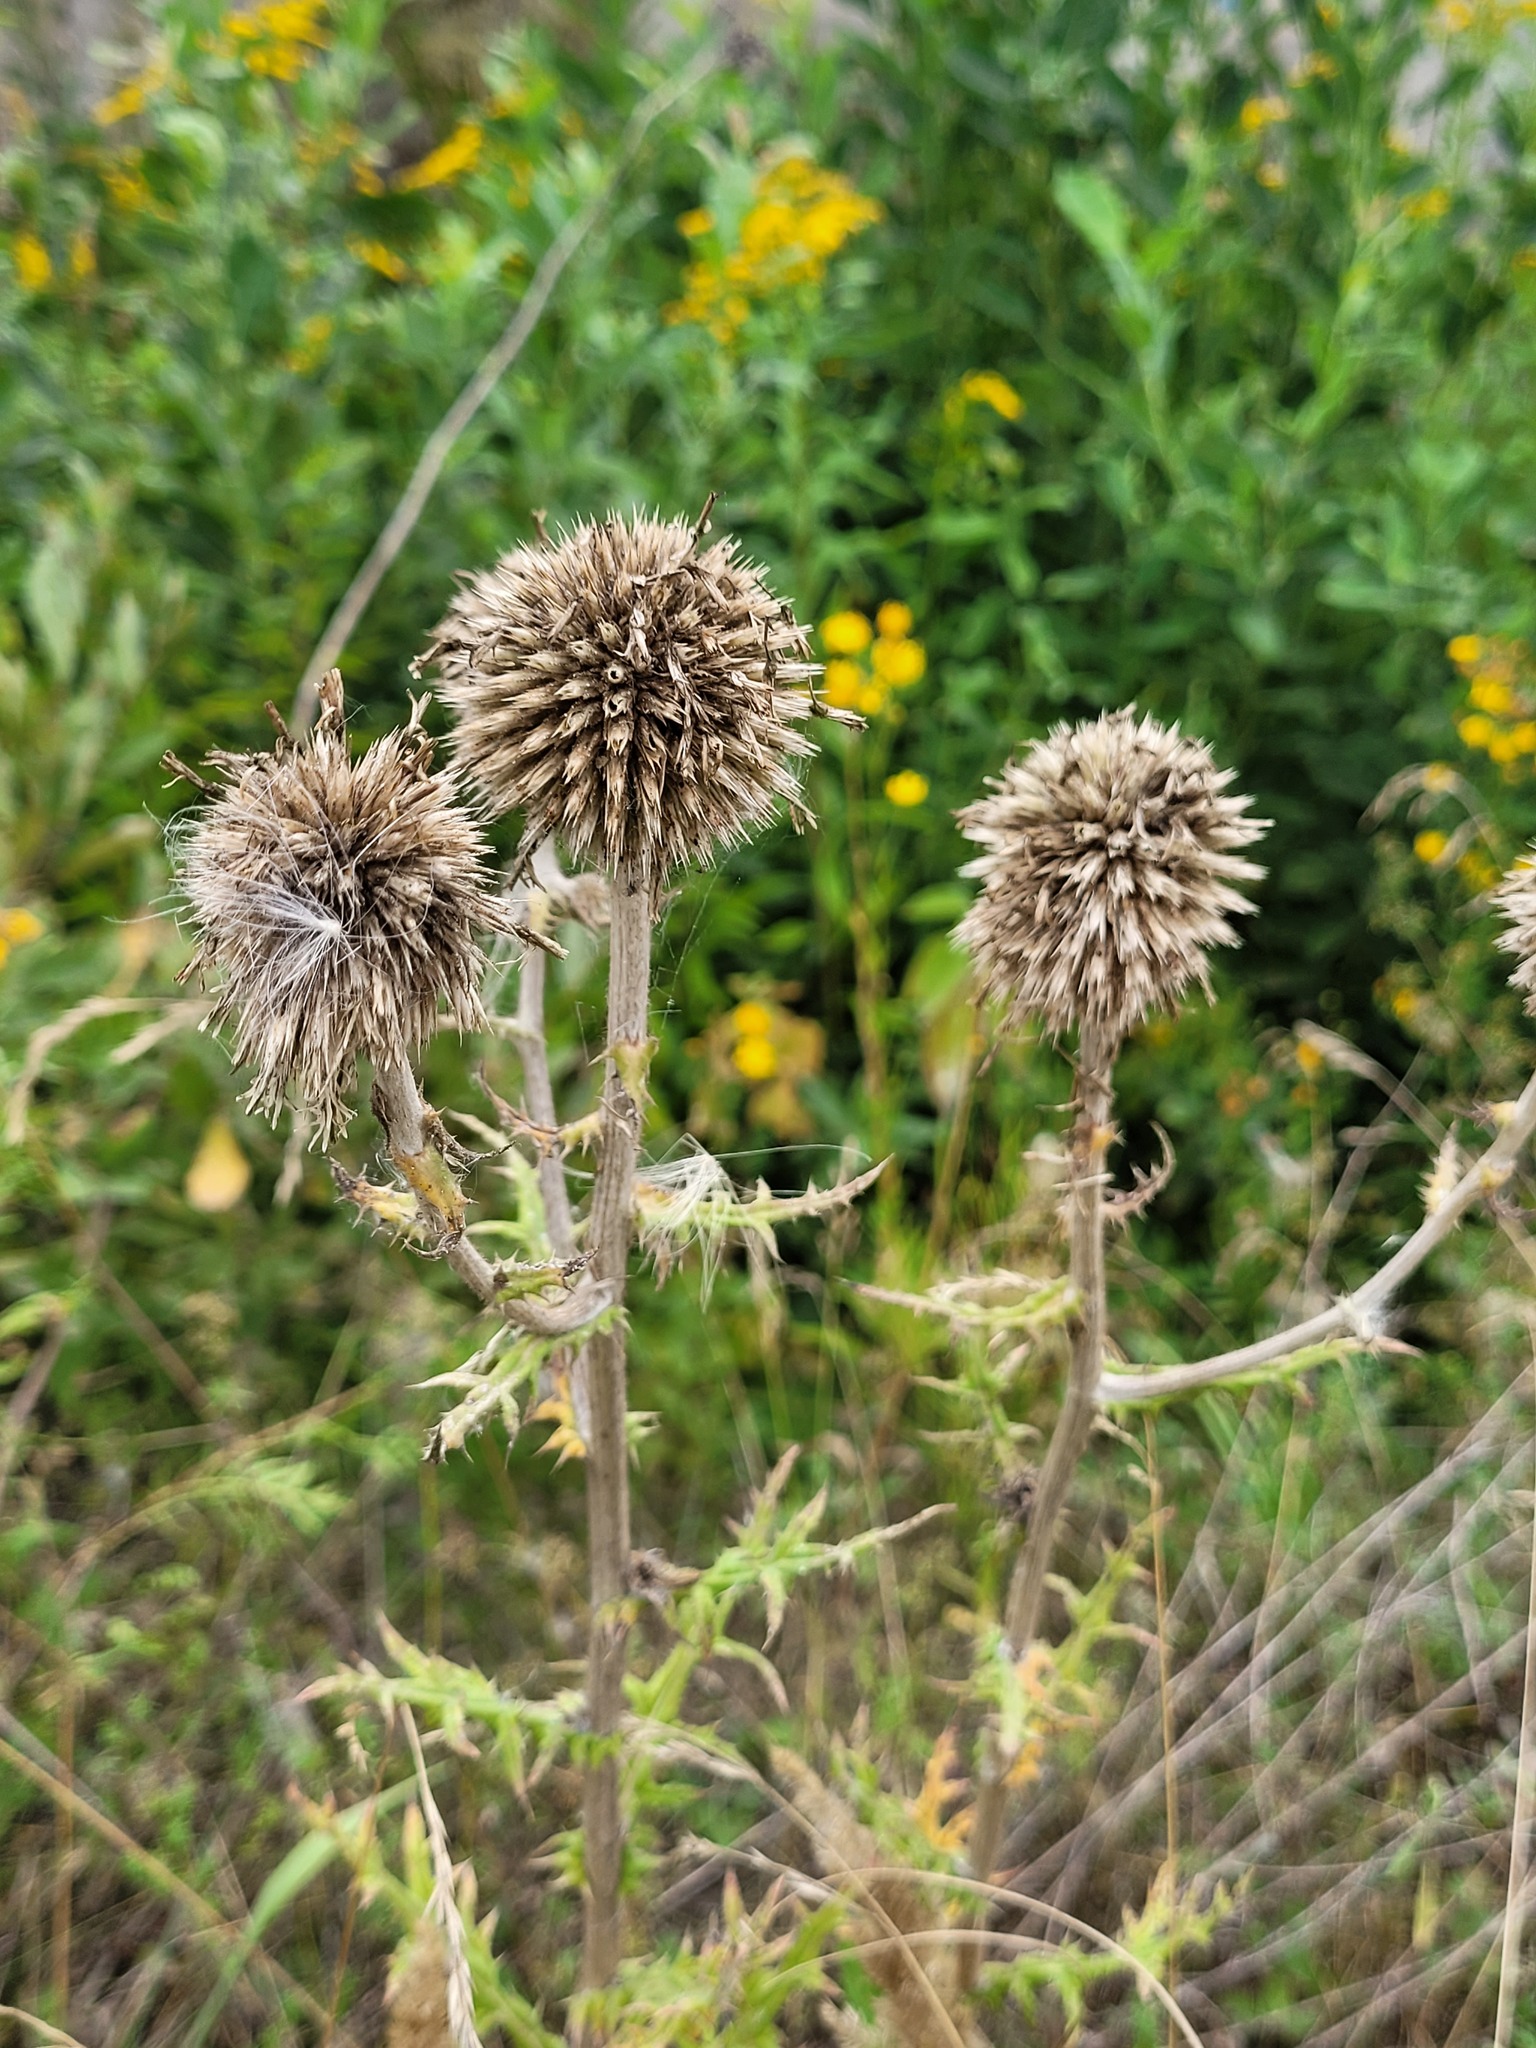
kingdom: Plantae
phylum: Tracheophyta
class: Magnoliopsida
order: Asterales
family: Asteraceae
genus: Echinops
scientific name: Echinops sphaerocephalus
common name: Glandular globe-thistle
